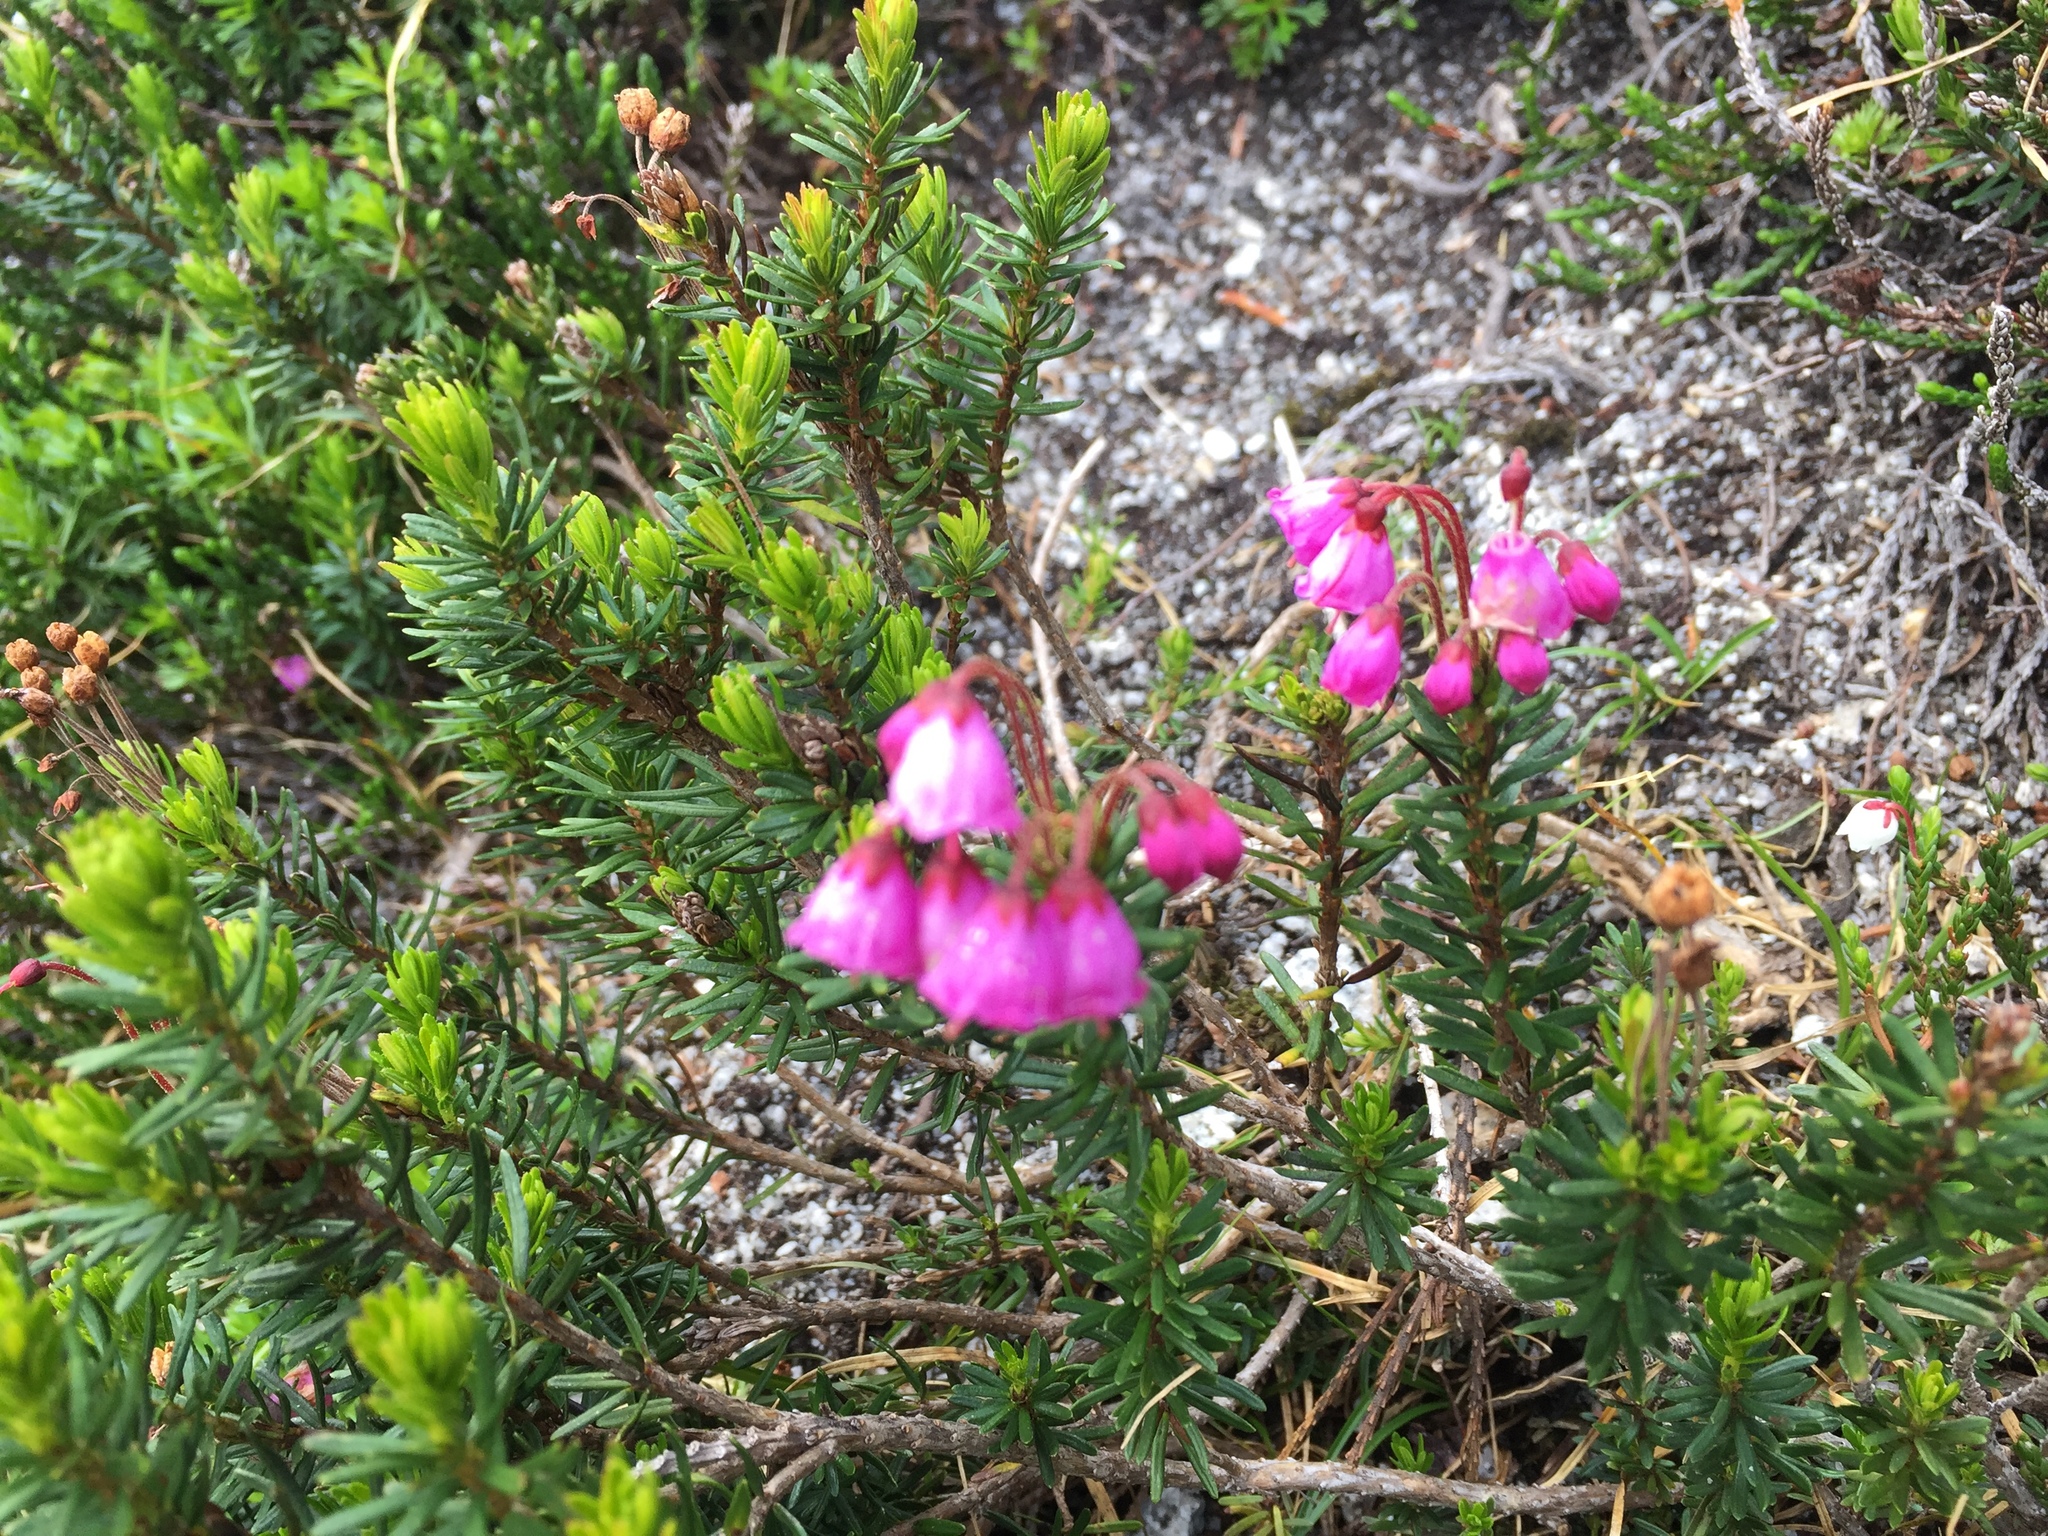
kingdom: Plantae
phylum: Tracheophyta
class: Magnoliopsida
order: Ericales
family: Ericaceae
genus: Phyllodoce
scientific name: Phyllodoce empetriformis
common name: Pink mountain heather
